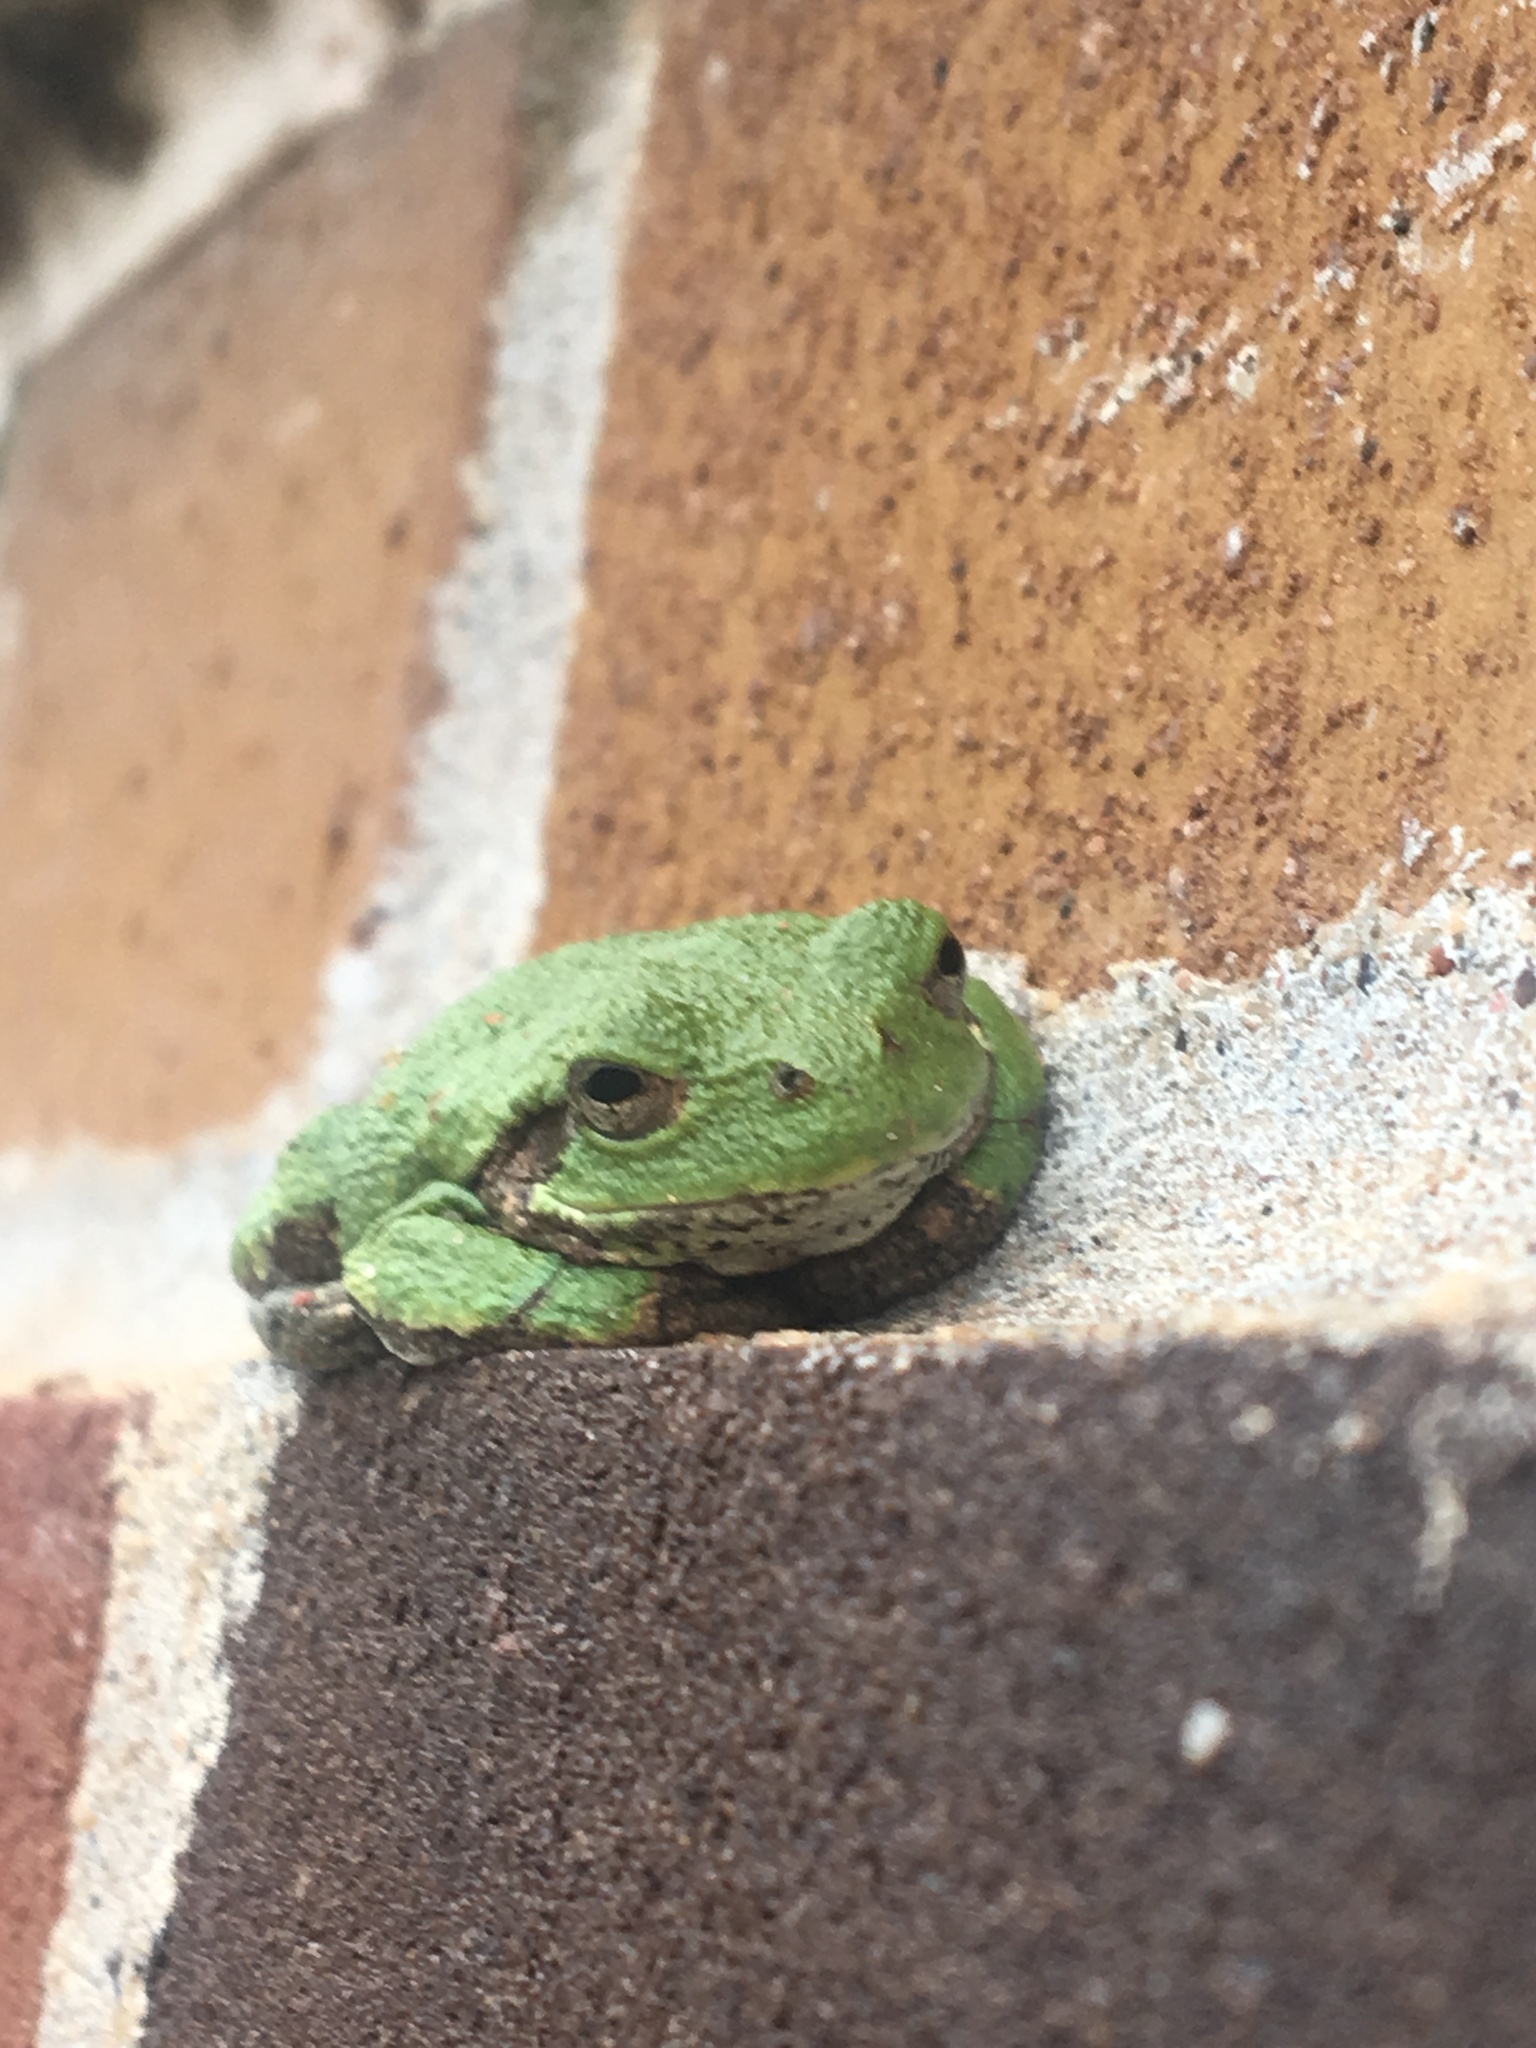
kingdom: Animalia
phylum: Chordata
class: Amphibia
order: Anura
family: Hylidae
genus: Hyla
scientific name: Hyla
